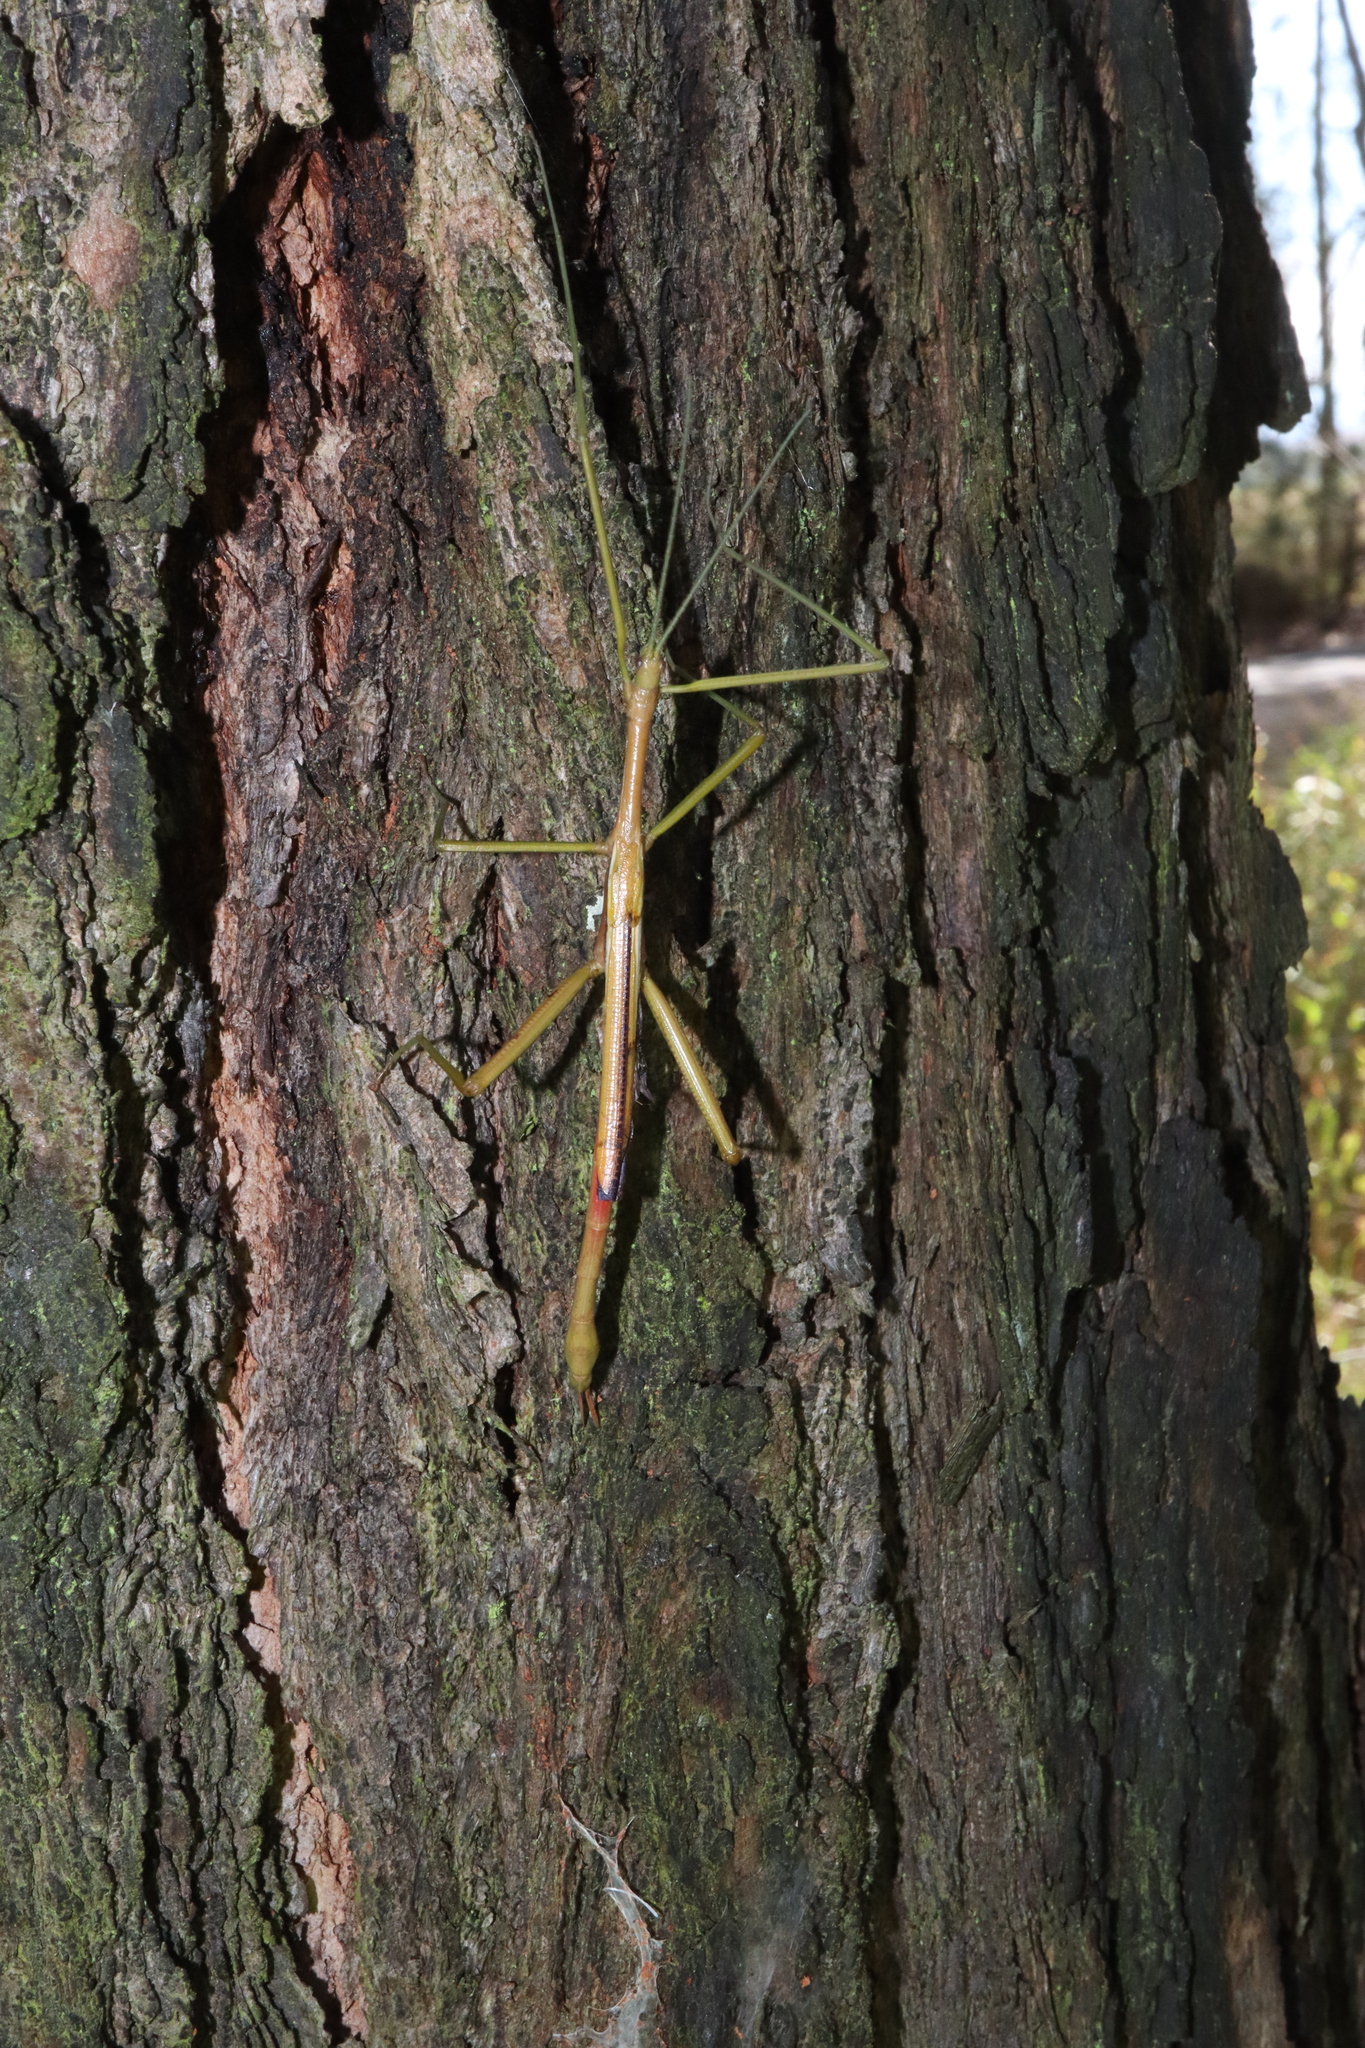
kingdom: Animalia
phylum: Arthropoda
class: Insecta
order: Phasmida
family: Phasmatidae
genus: Didymuria
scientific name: Didymuria violescens
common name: Spur-legged stick-insect
